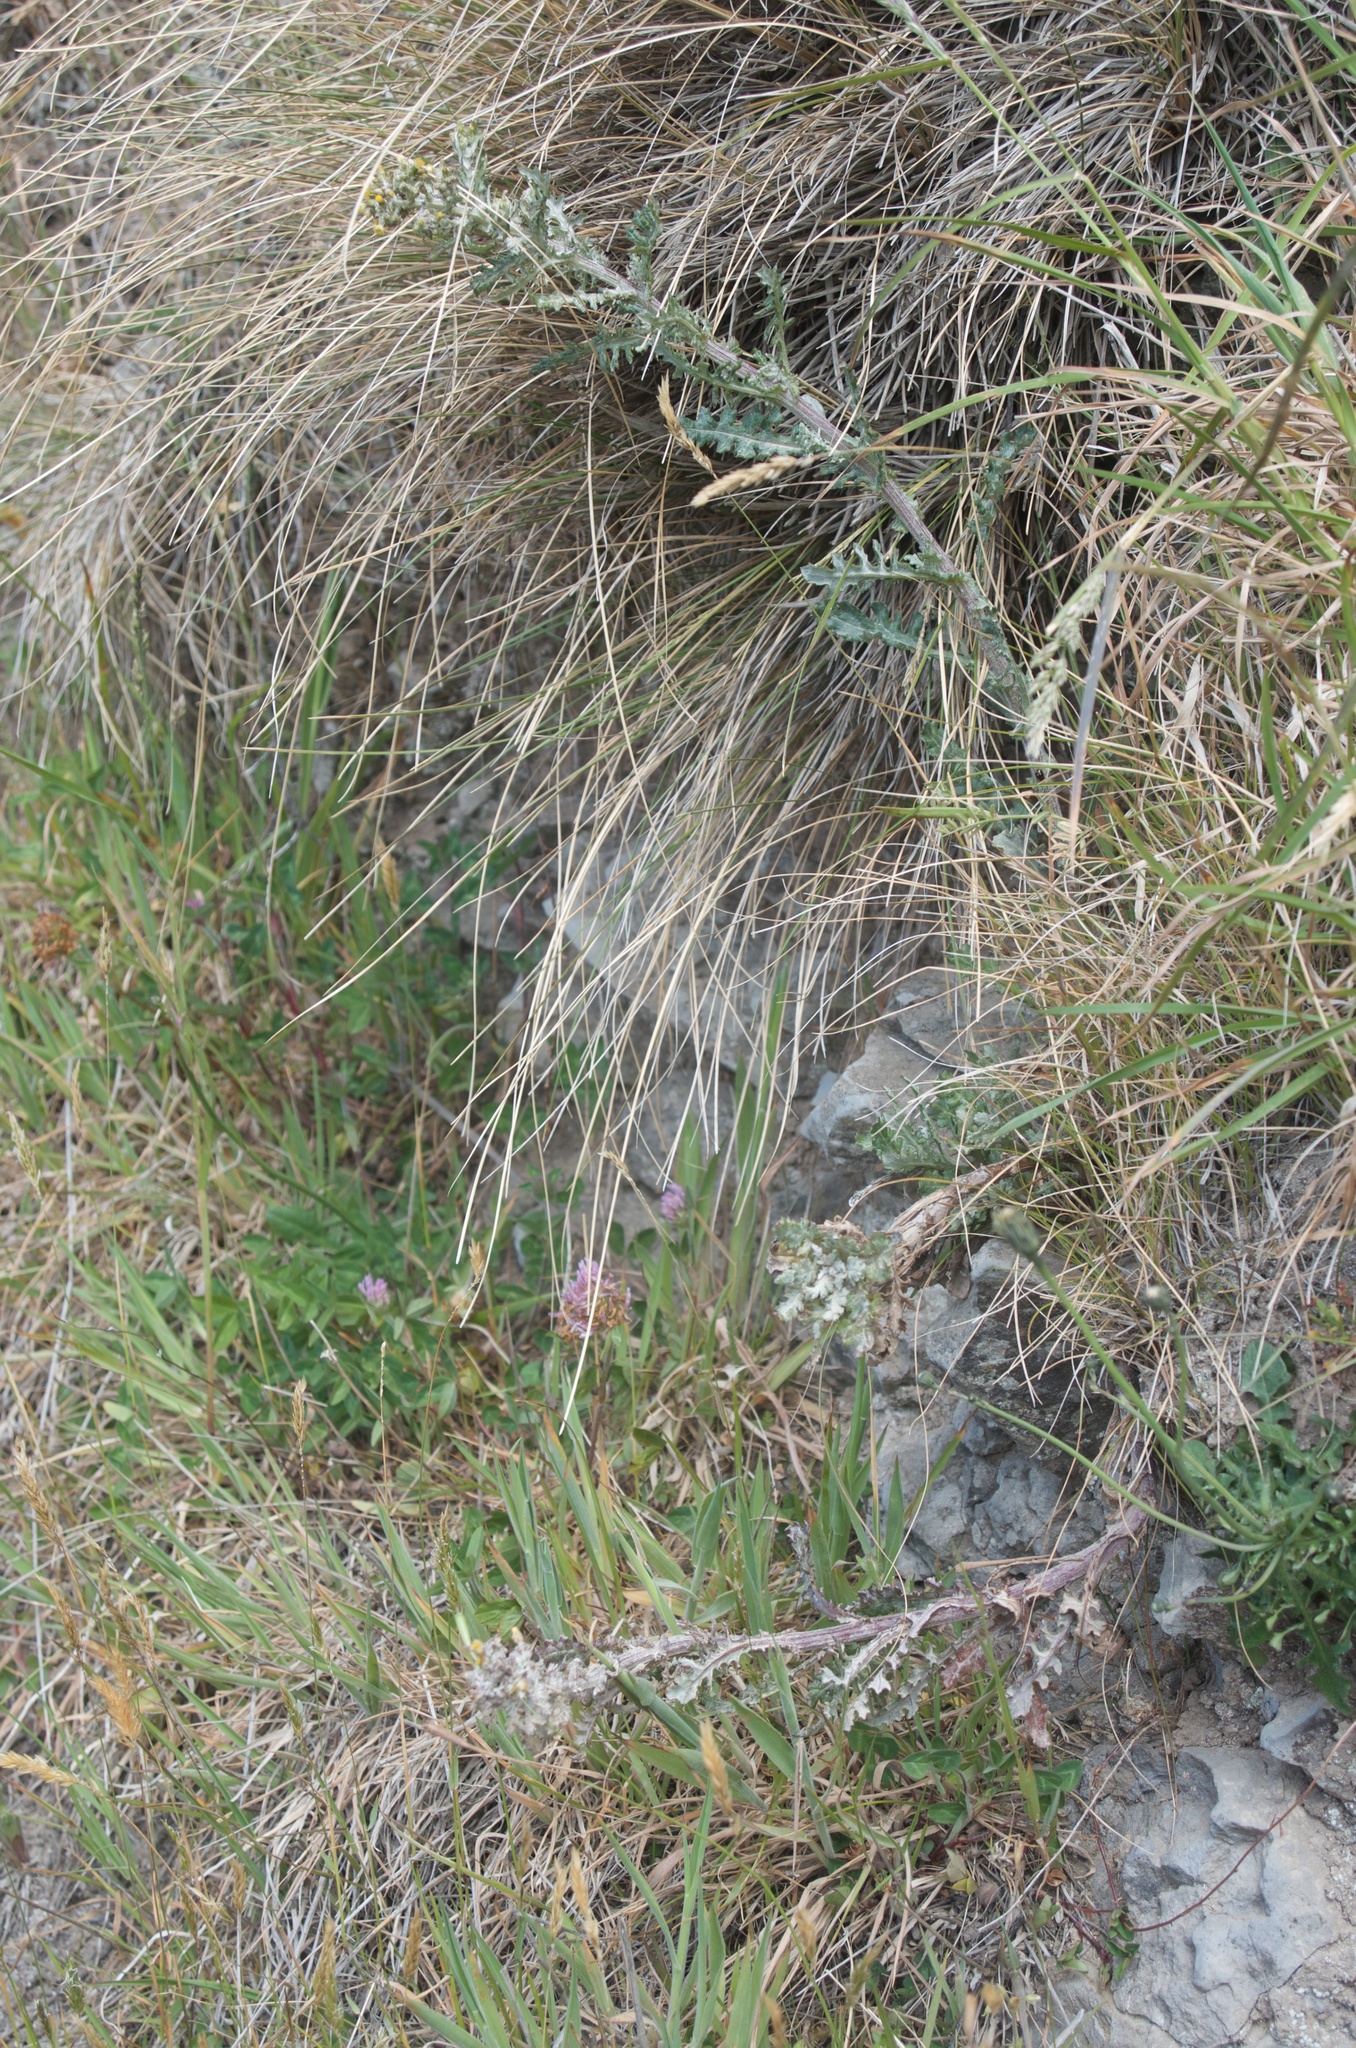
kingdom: Plantae
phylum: Tracheophyta
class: Magnoliopsida
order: Asterales
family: Asteraceae
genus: Senecio
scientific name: Senecio glomeratus
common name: Cutleaf burnweed
